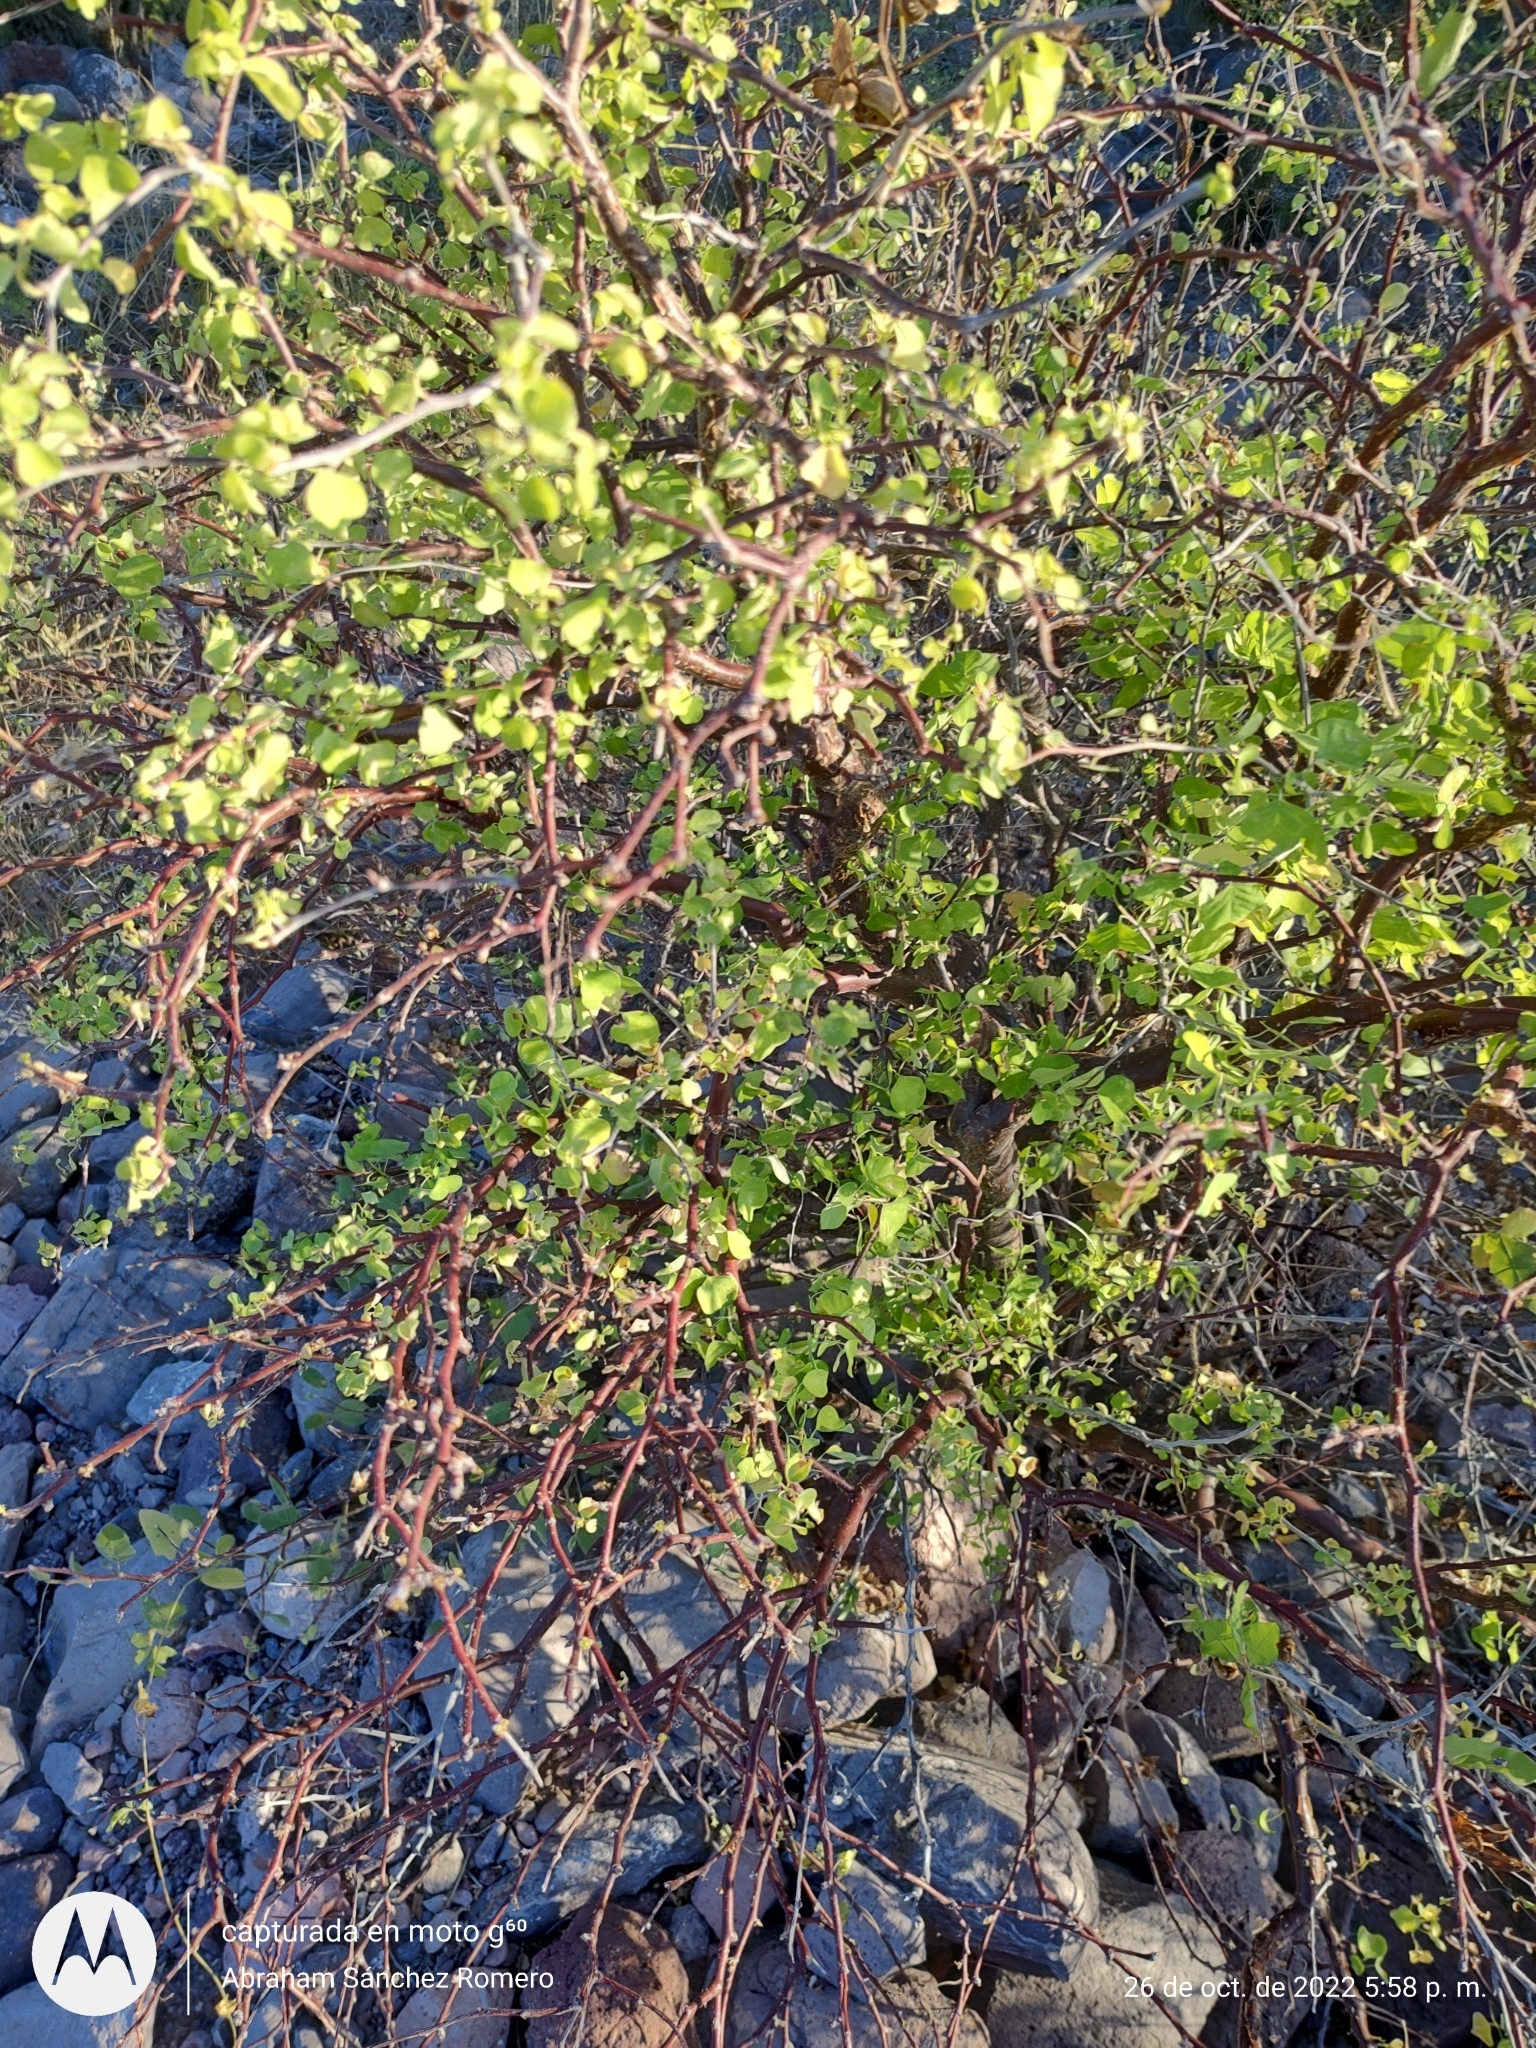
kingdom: Plantae
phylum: Tracheophyta
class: Magnoliopsida
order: Malpighiales
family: Euphorbiaceae
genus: Euphorbia
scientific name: Euphorbia californica
